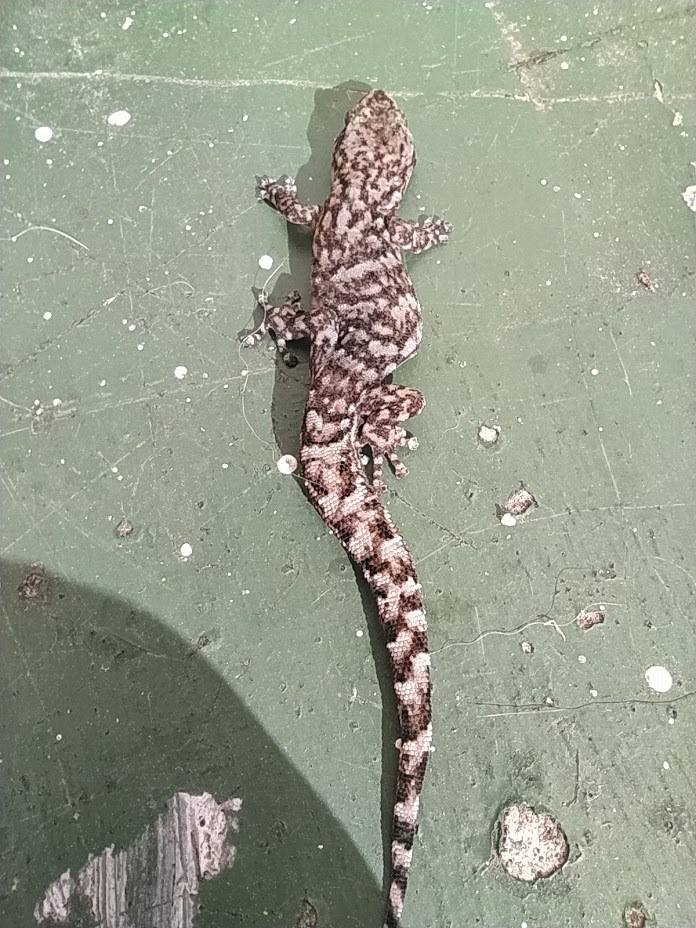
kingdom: Animalia
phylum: Chordata
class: Squamata
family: Gekkonidae
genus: Afrogecko
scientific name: Afrogecko porphyreus
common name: Marbled leaf-toed gecko
